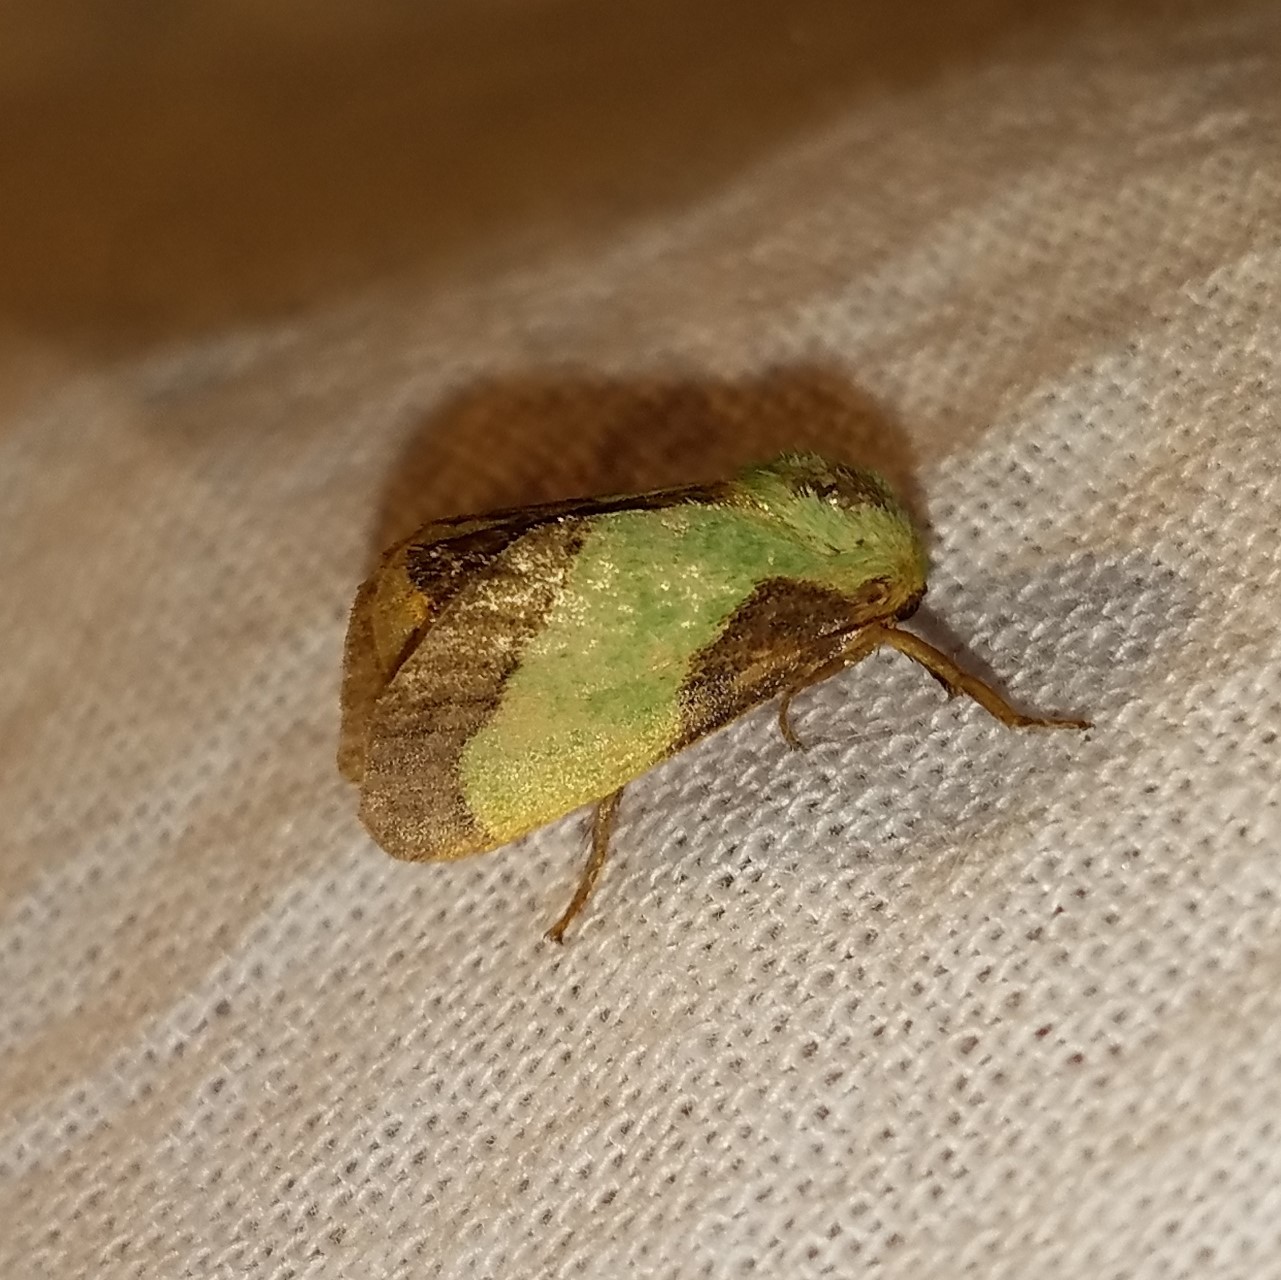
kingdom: Animalia
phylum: Arthropoda
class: Insecta
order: Lepidoptera
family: Limacodidae
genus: Parasa
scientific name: Parasa chloris
